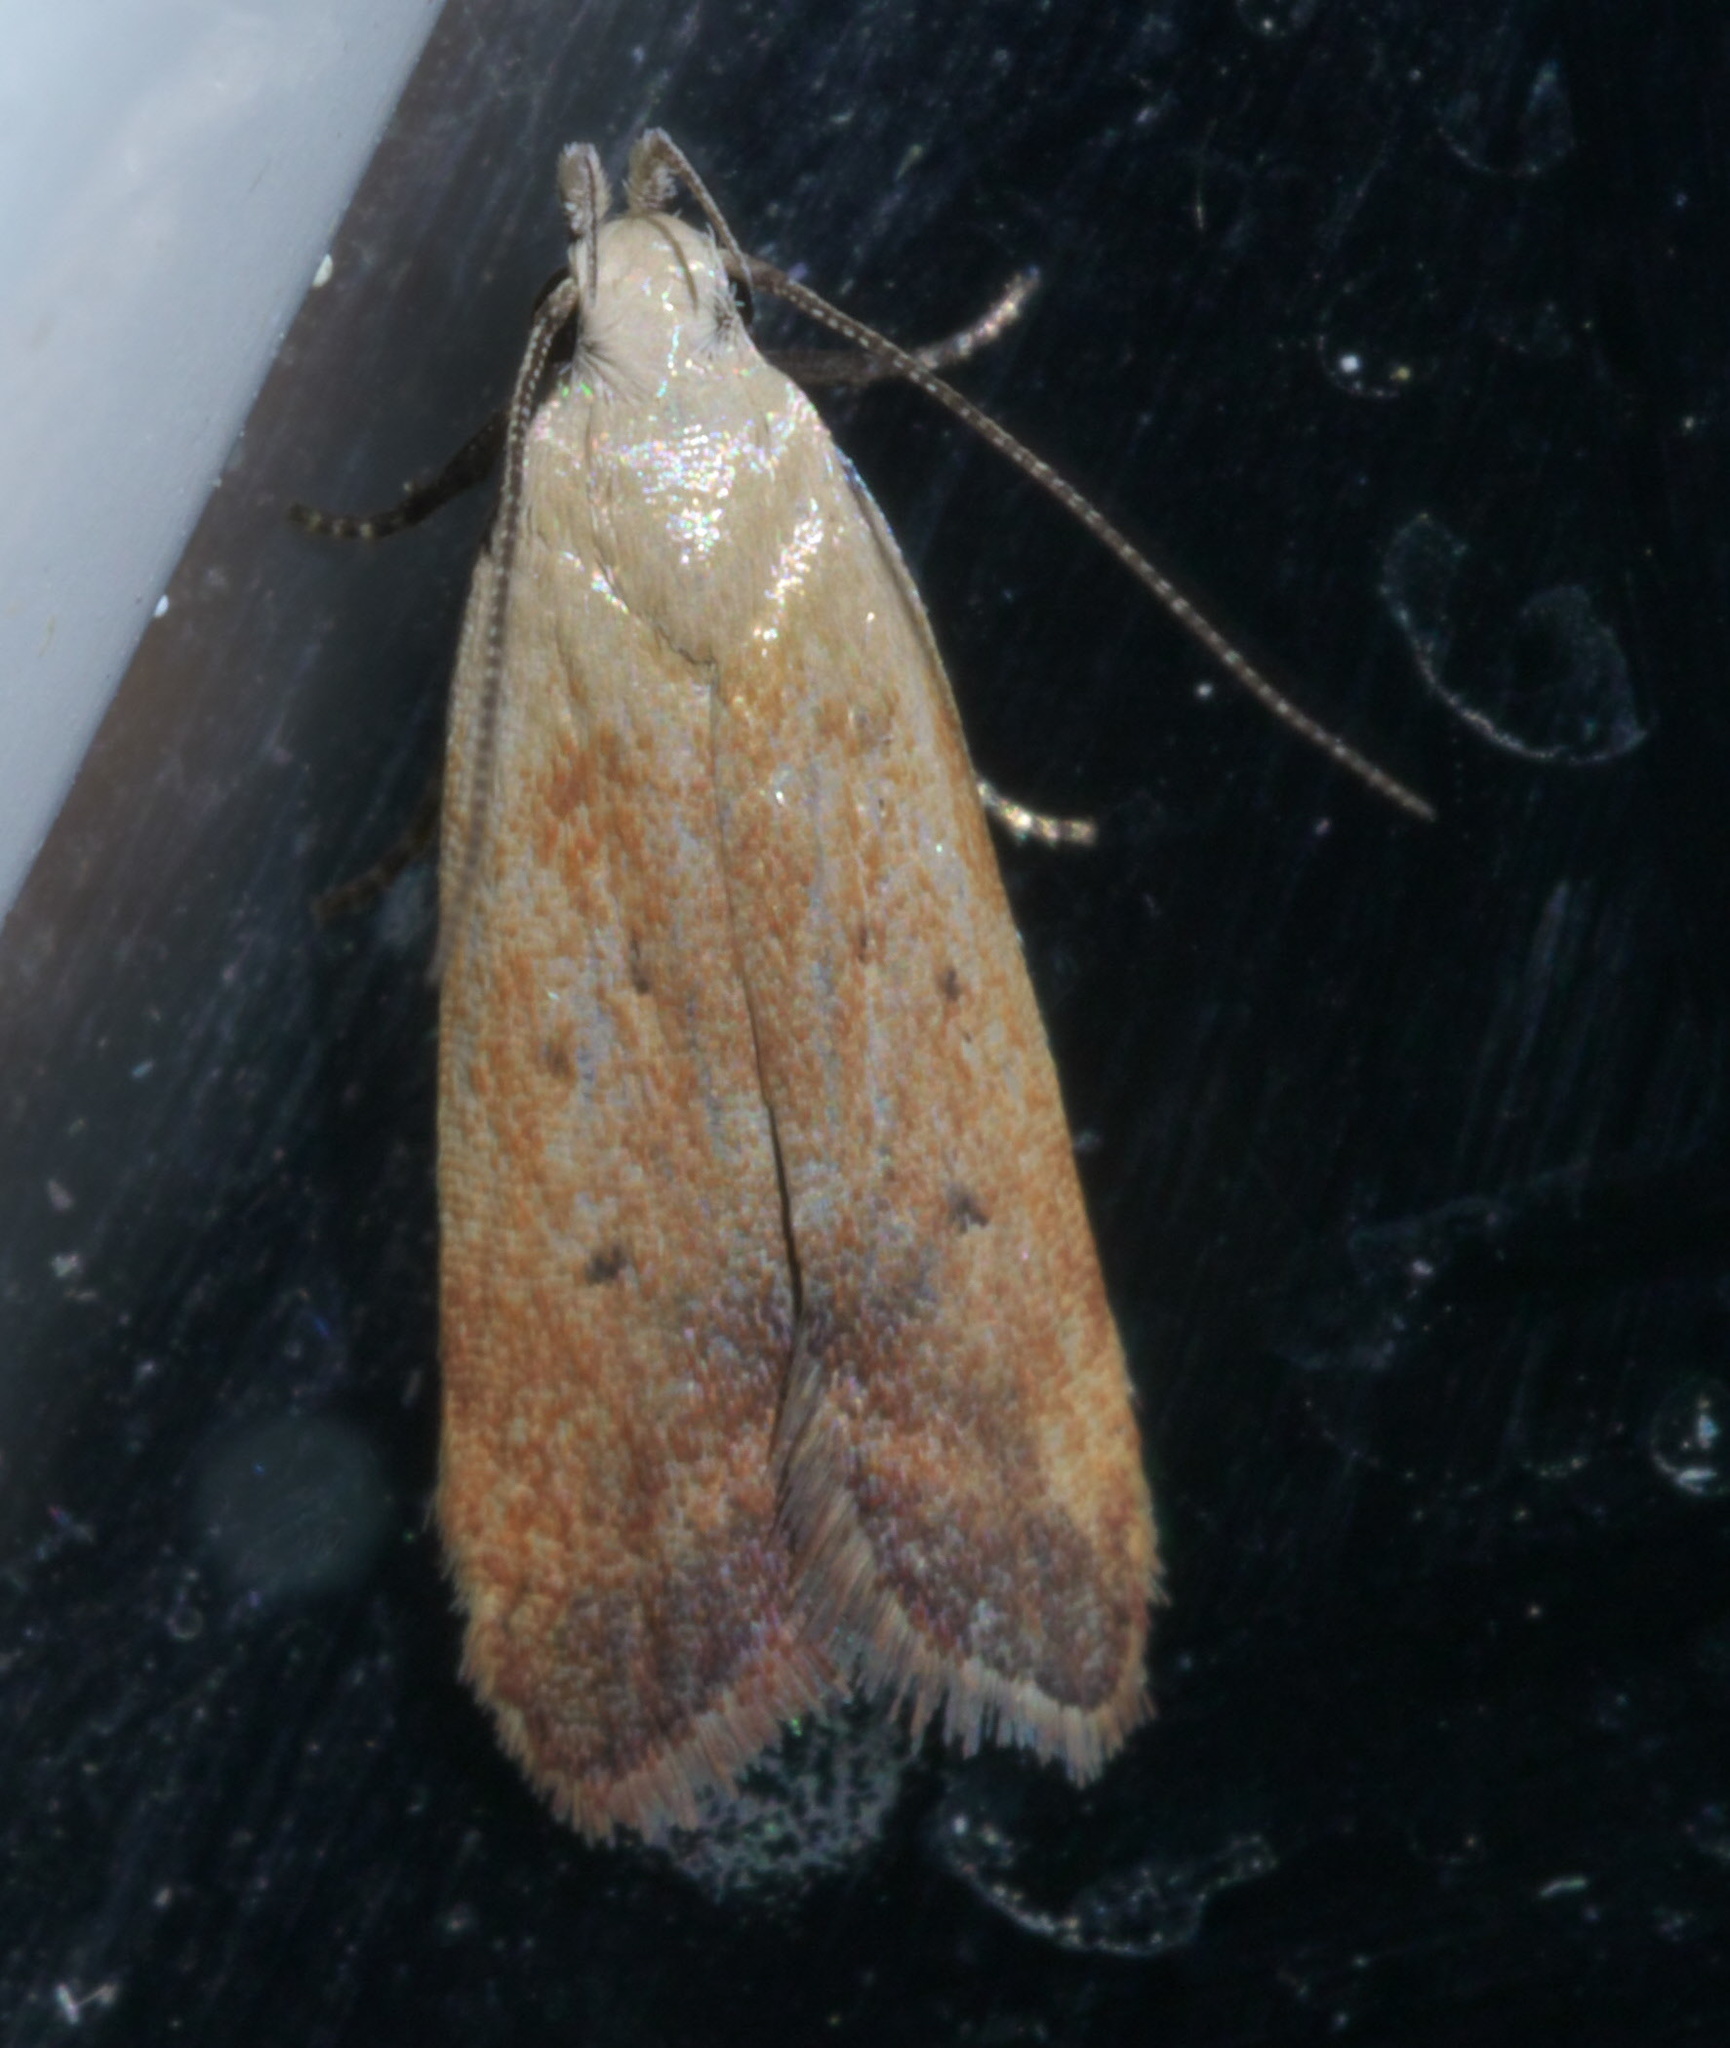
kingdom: Animalia
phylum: Arthropoda
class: Insecta
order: Lepidoptera
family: Gelechiidae
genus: Anacampsis
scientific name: Anacampsis fullonella
